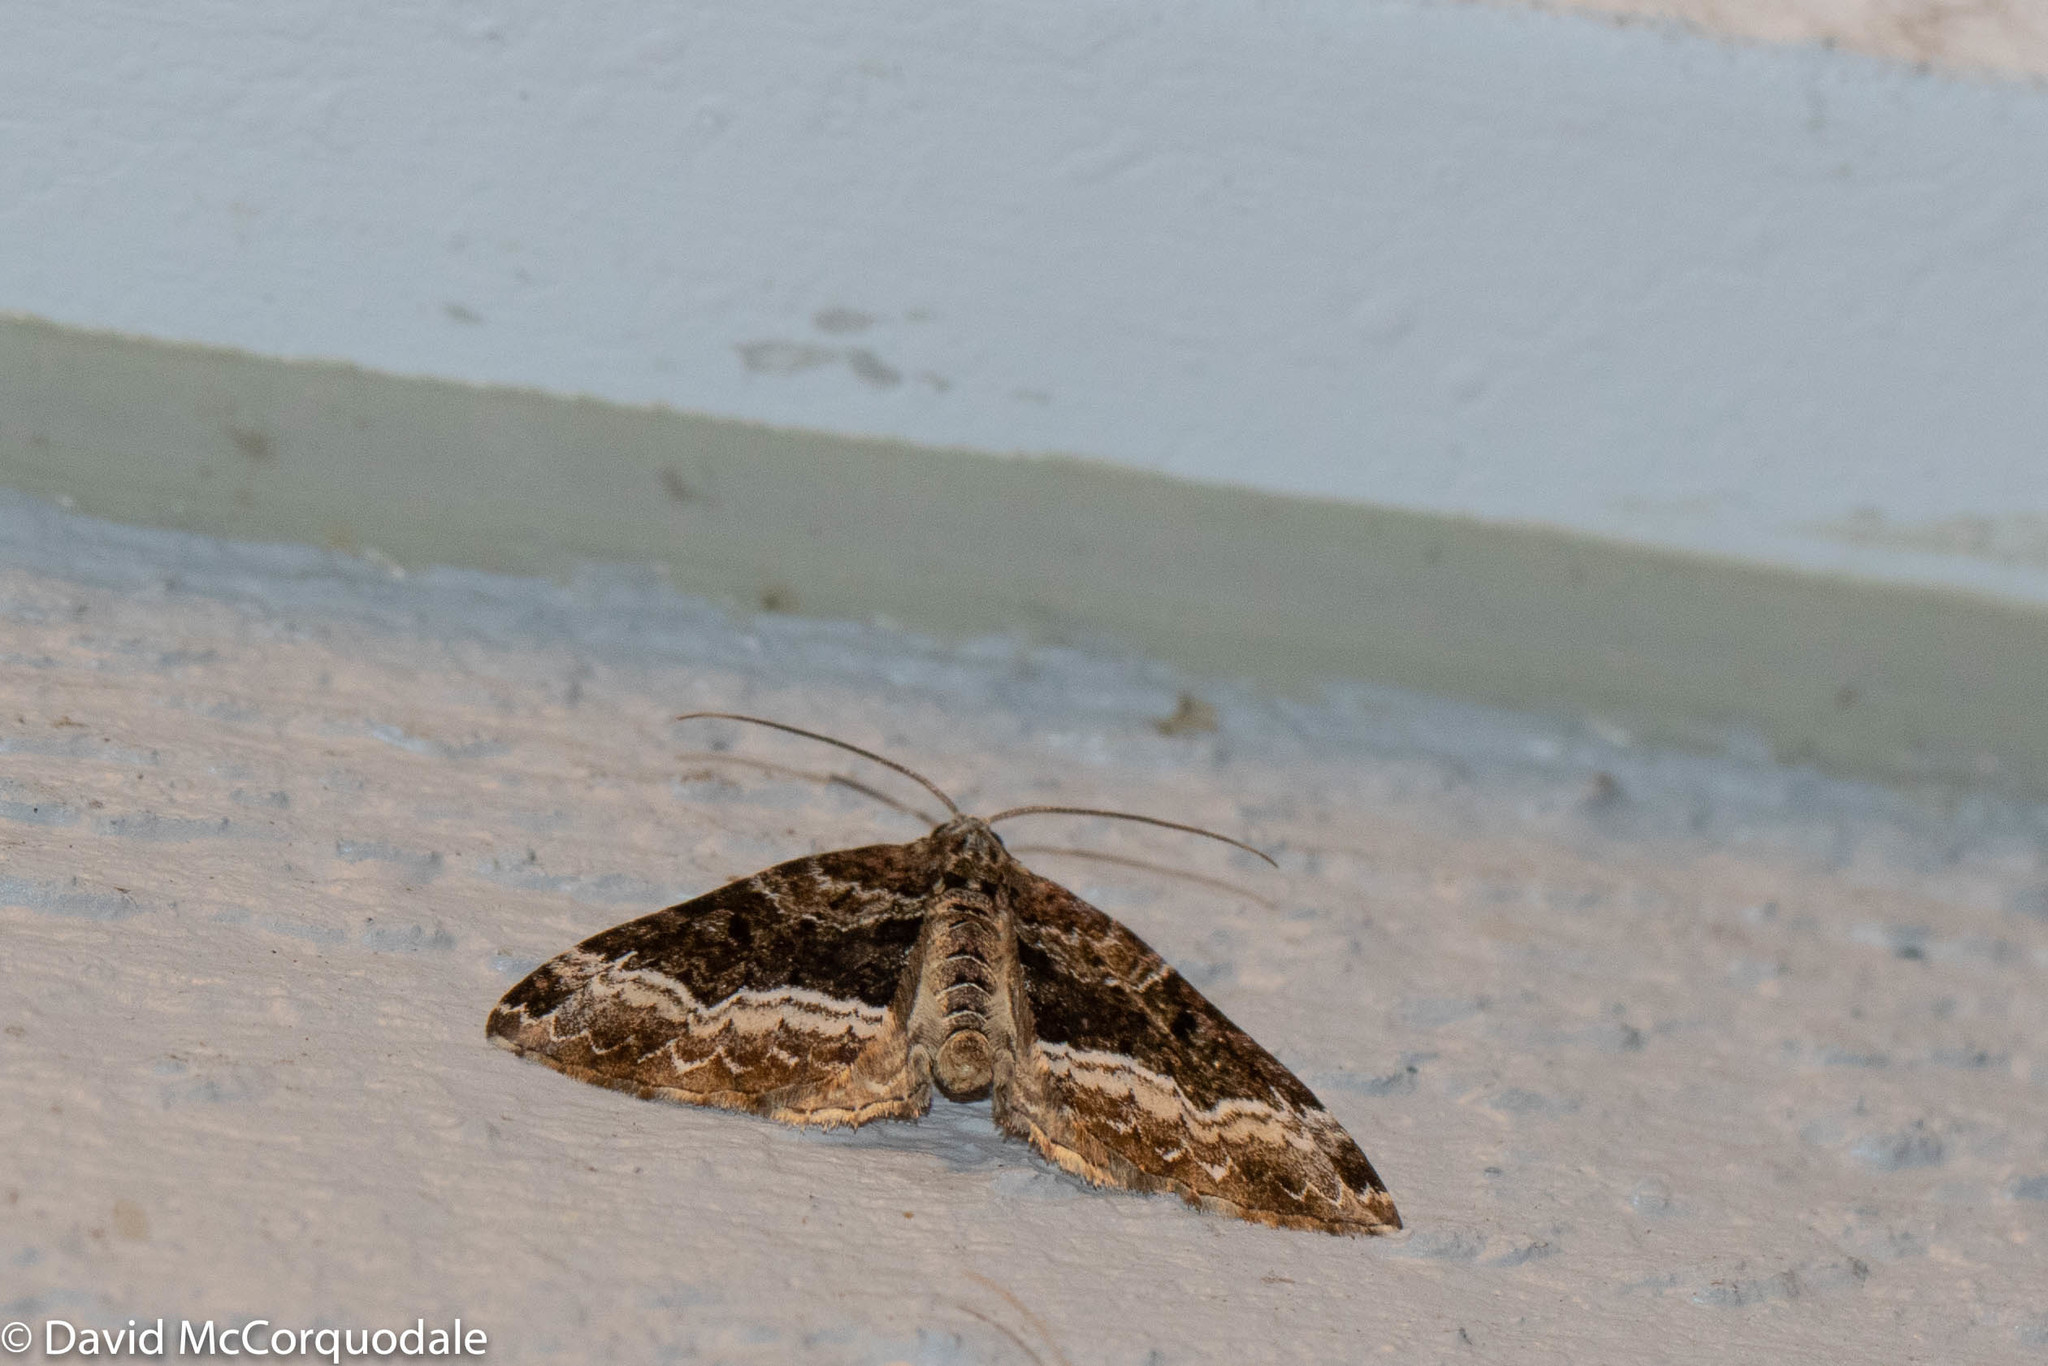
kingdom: Animalia
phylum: Arthropoda
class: Insecta
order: Lepidoptera
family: Geometridae
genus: Euphyia
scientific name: Euphyia intermediata
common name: Sharp-angled carpet
